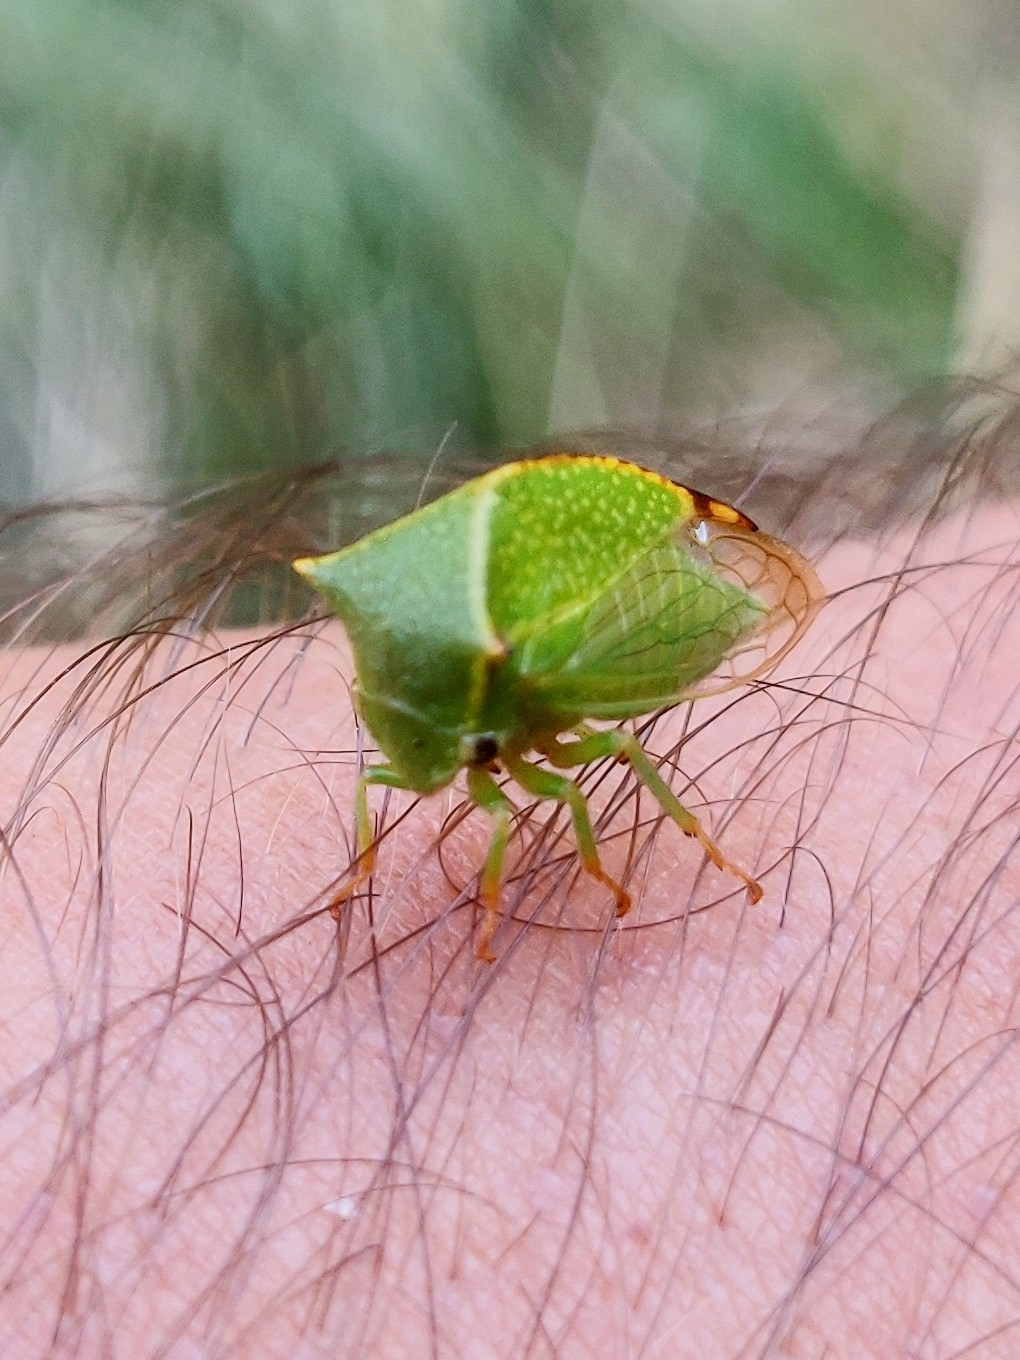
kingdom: Animalia
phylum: Arthropoda
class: Insecta
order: Hemiptera
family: Membracidae
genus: Stictocephala
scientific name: Stictocephala bisonia
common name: American buffalo treehopper
